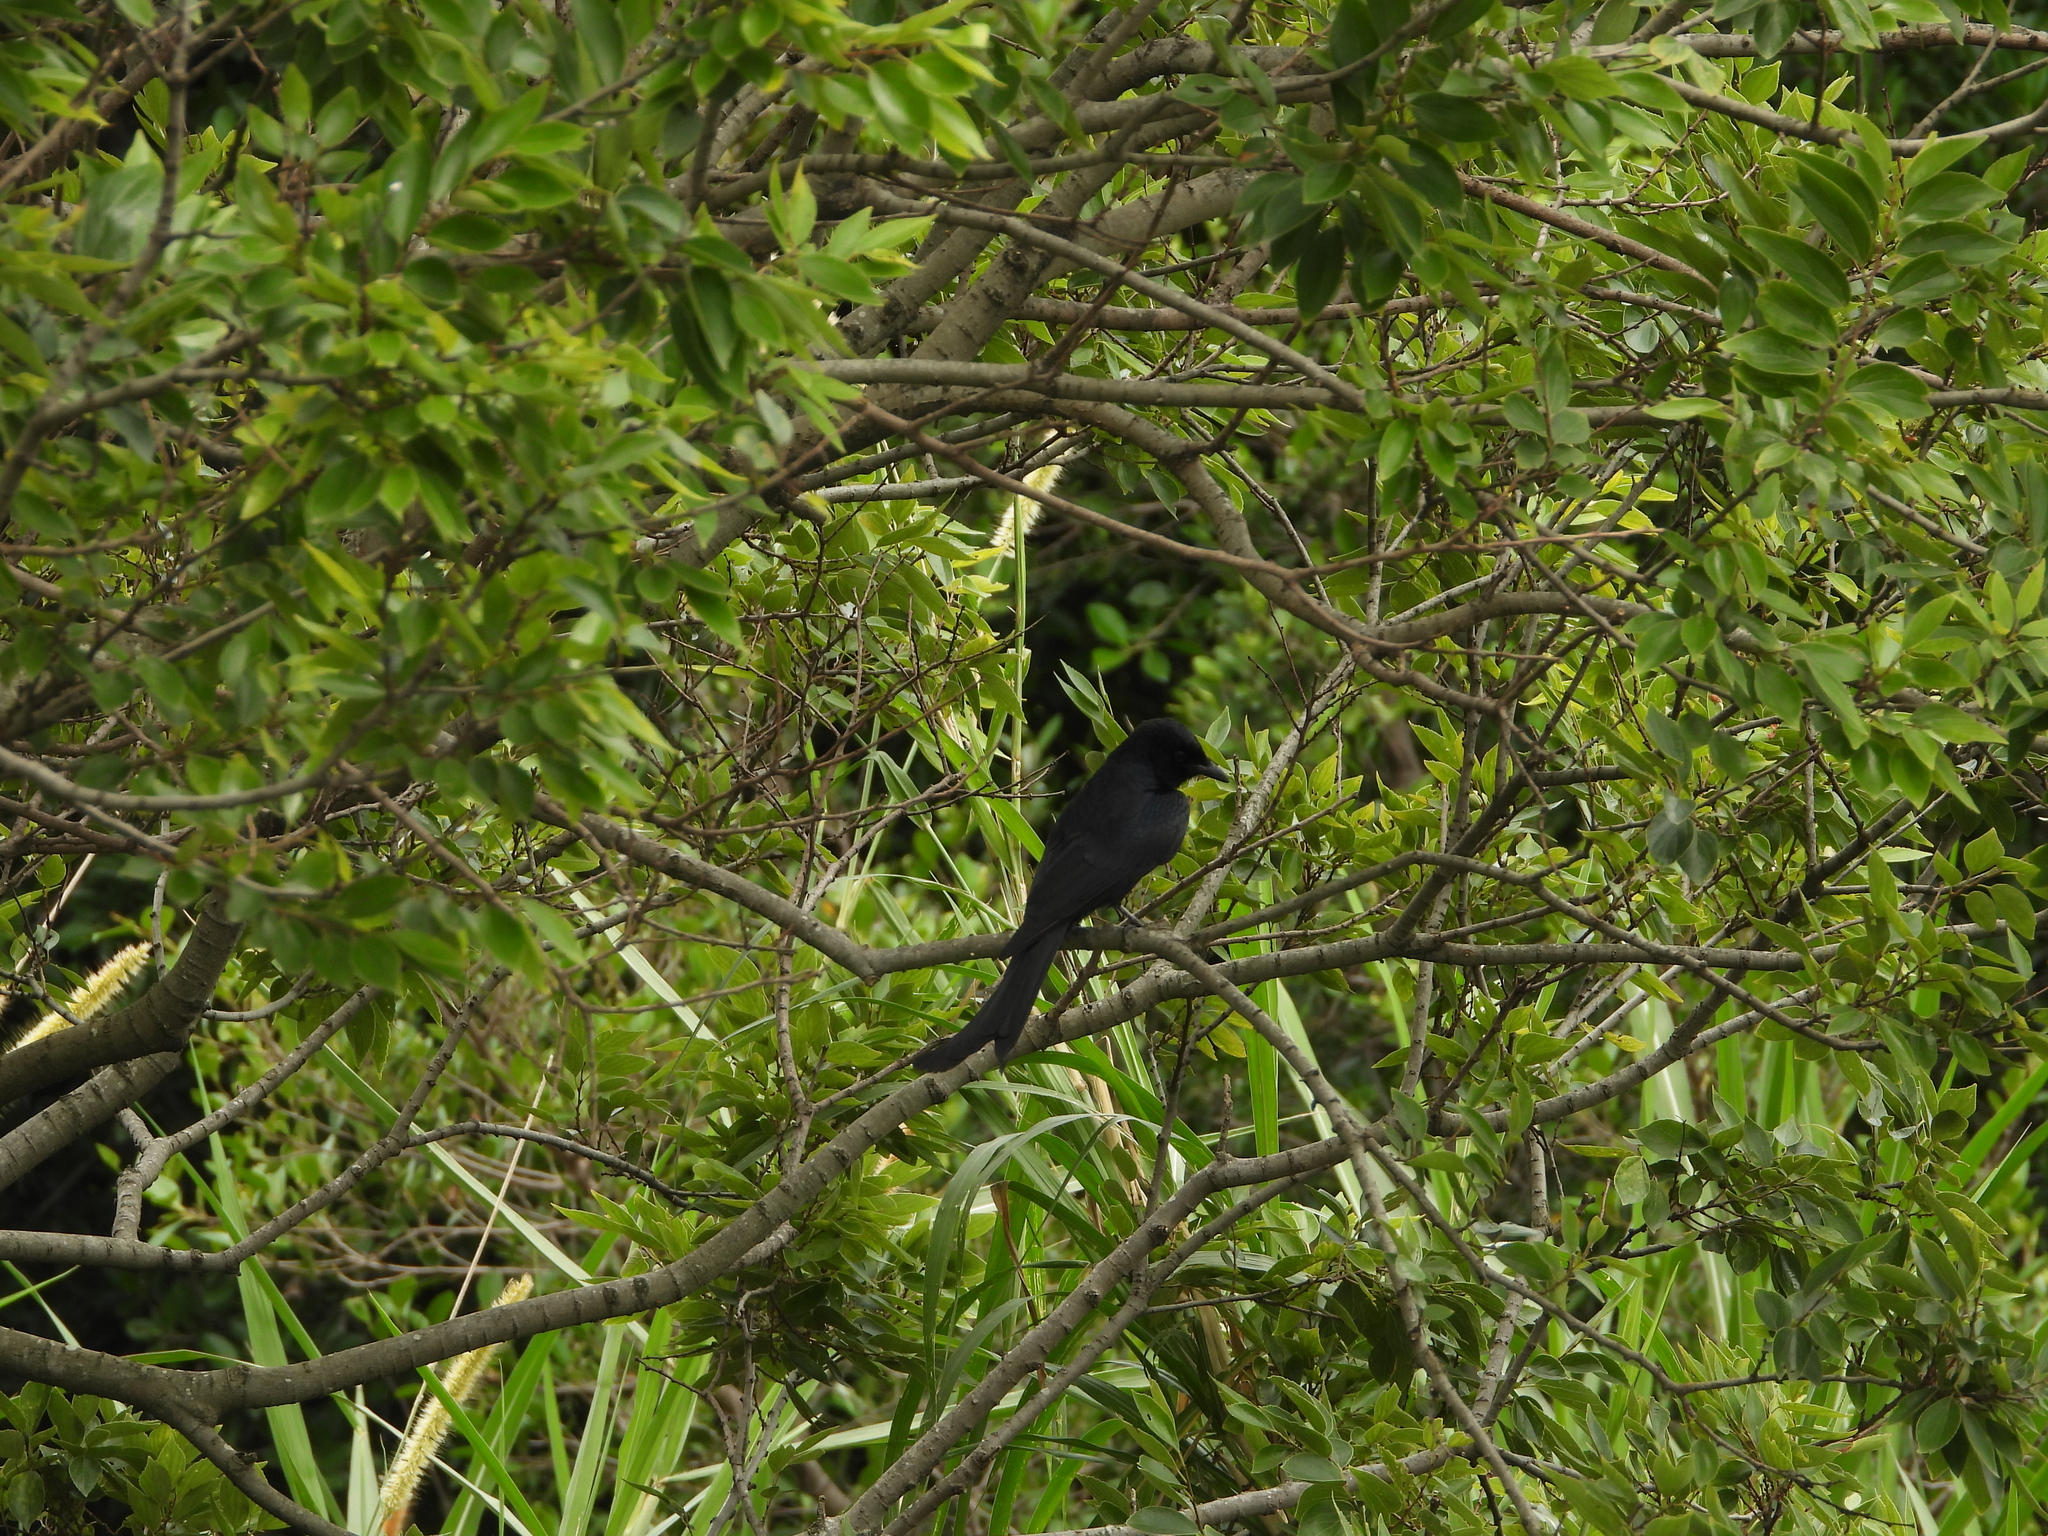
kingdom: Animalia
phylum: Chordata
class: Aves
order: Passeriformes
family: Dicruridae
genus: Dicrurus
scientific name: Dicrurus macrocercus
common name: Black drongo
